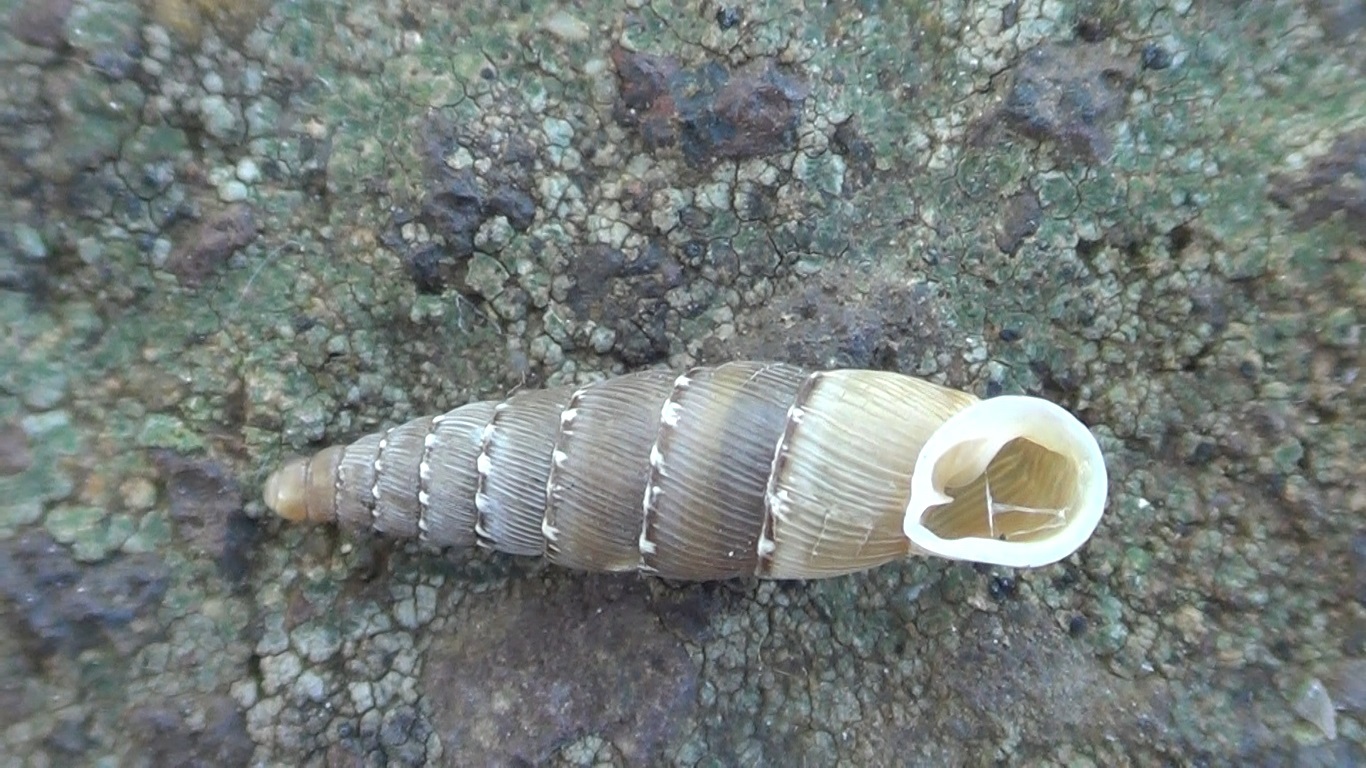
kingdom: Animalia
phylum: Mollusca
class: Gastropoda
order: Stylommatophora
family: Clausiliidae
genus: Papillifera
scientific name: Papillifera papillaris
